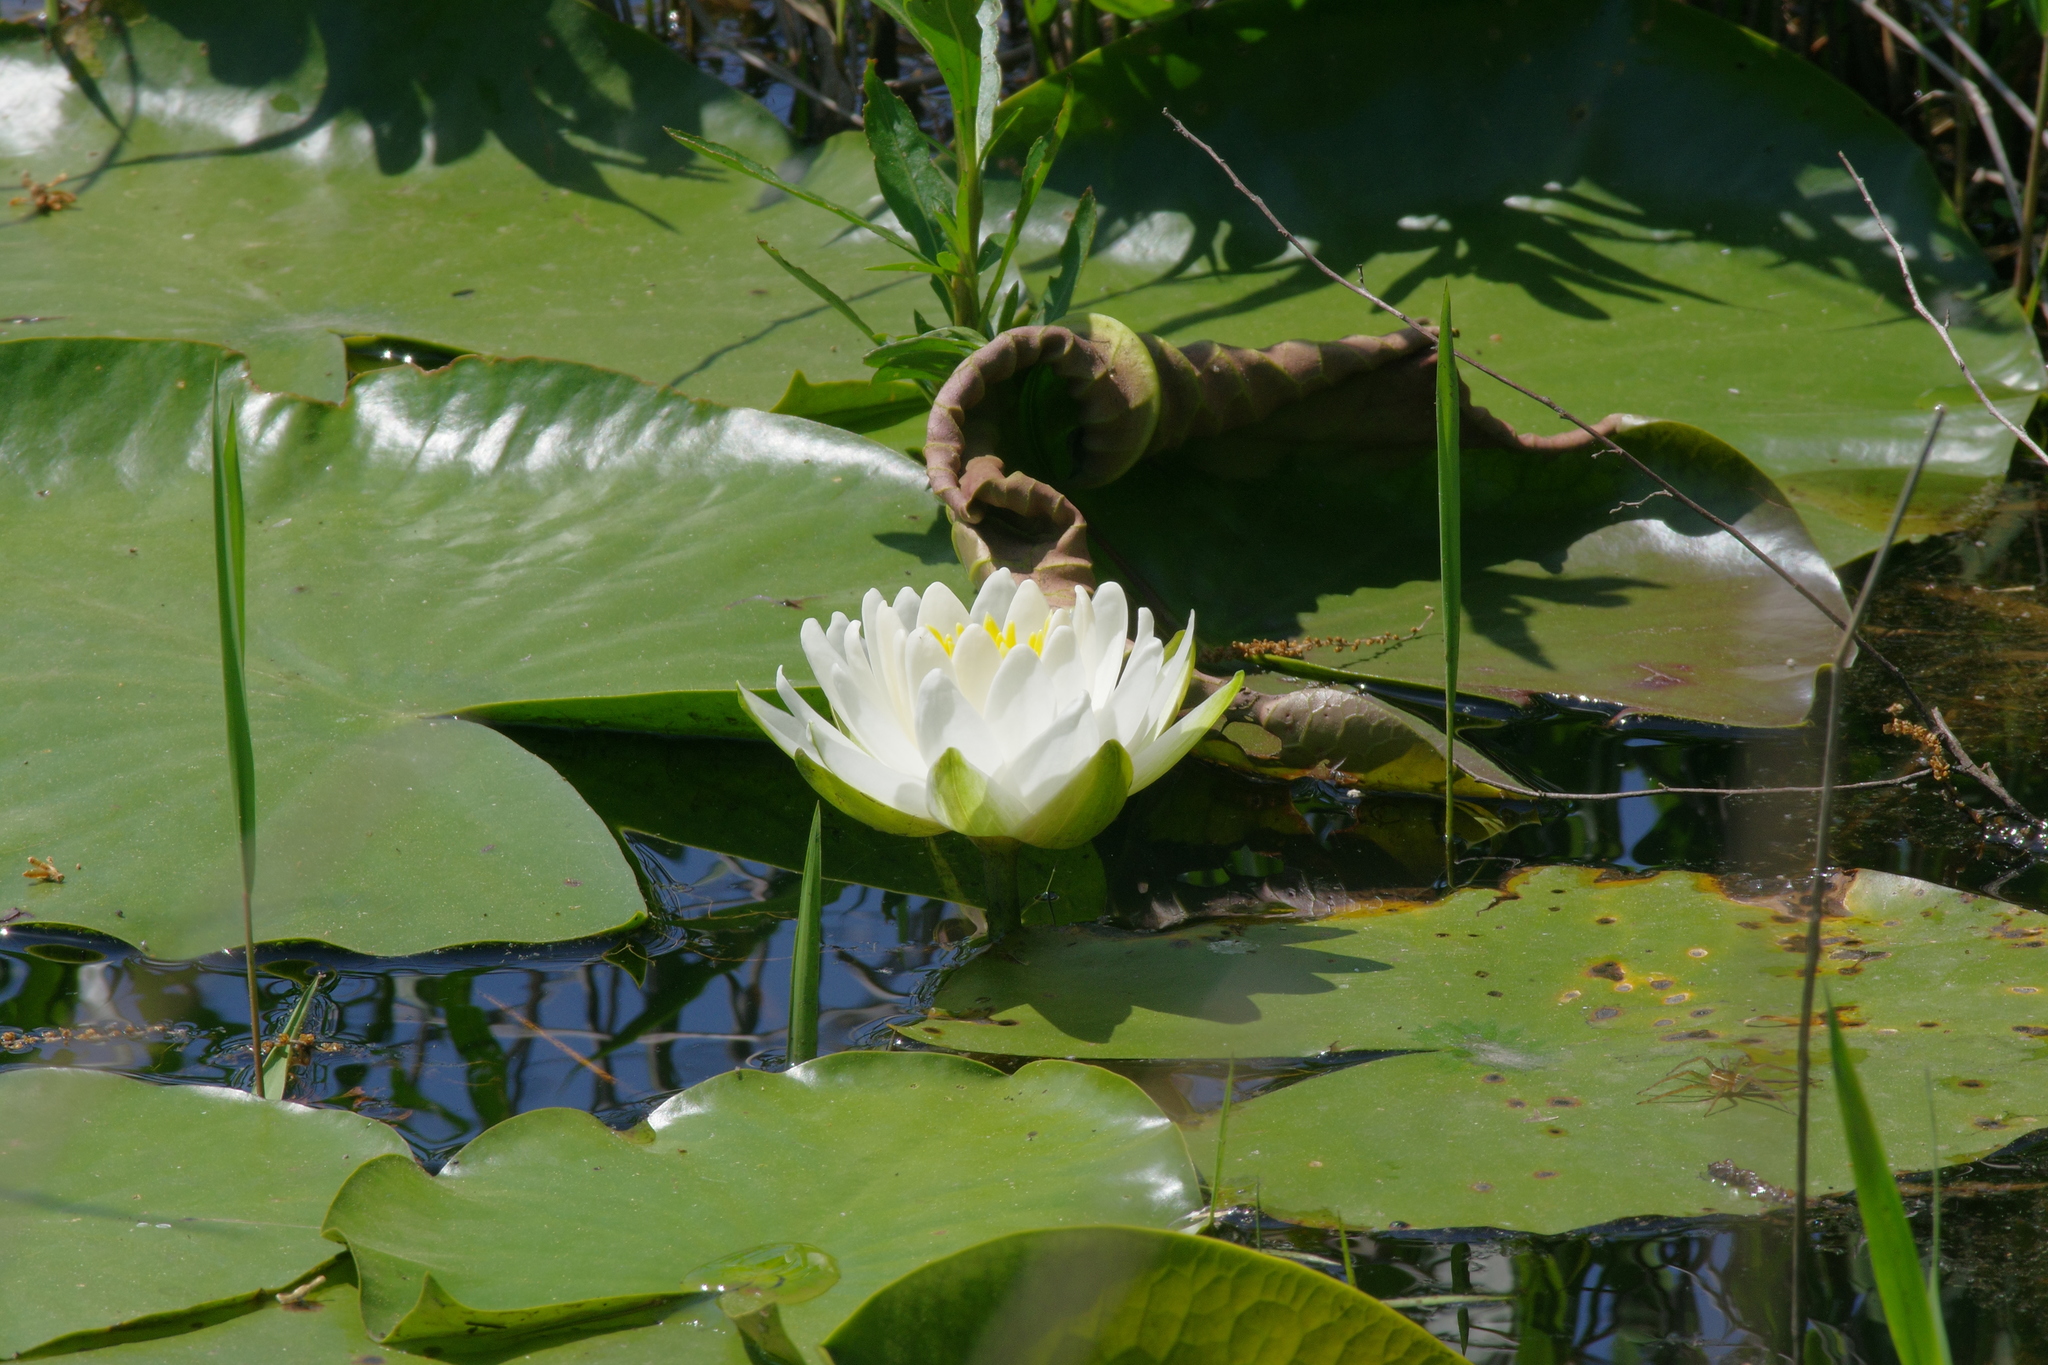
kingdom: Plantae
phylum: Tracheophyta
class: Magnoliopsida
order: Nymphaeales
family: Nymphaeaceae
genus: Nymphaea
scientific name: Nymphaea odorata
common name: Fragrant water-lily
